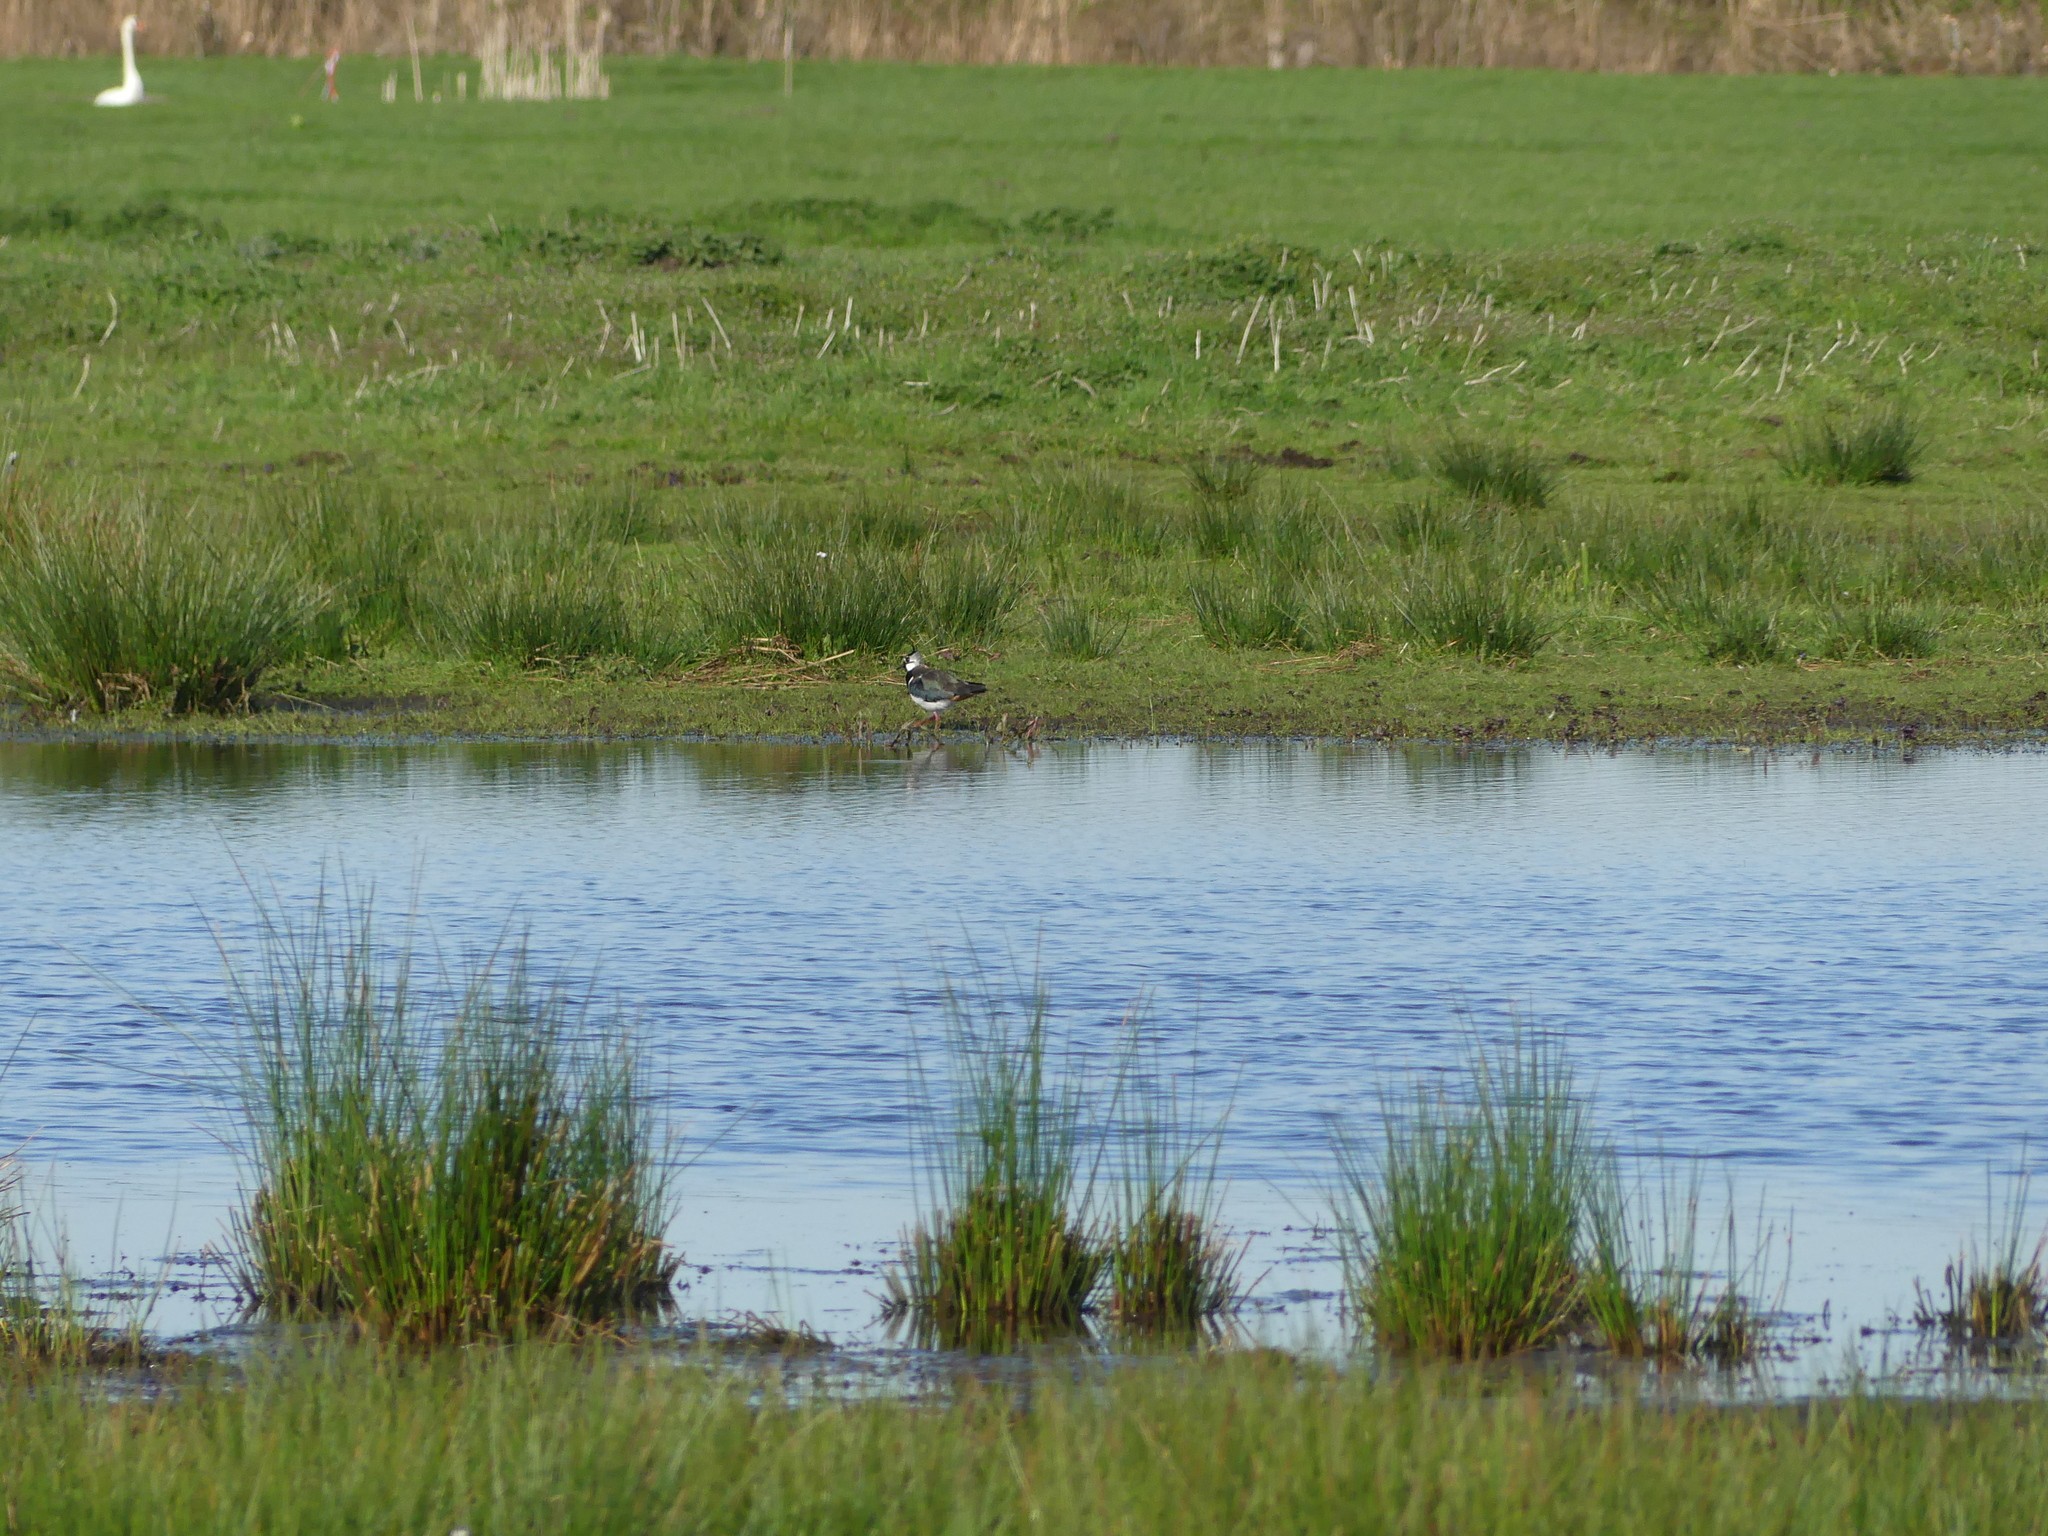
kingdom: Animalia
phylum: Chordata
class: Aves
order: Charadriiformes
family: Charadriidae
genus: Vanellus
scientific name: Vanellus vanellus
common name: Northern lapwing
